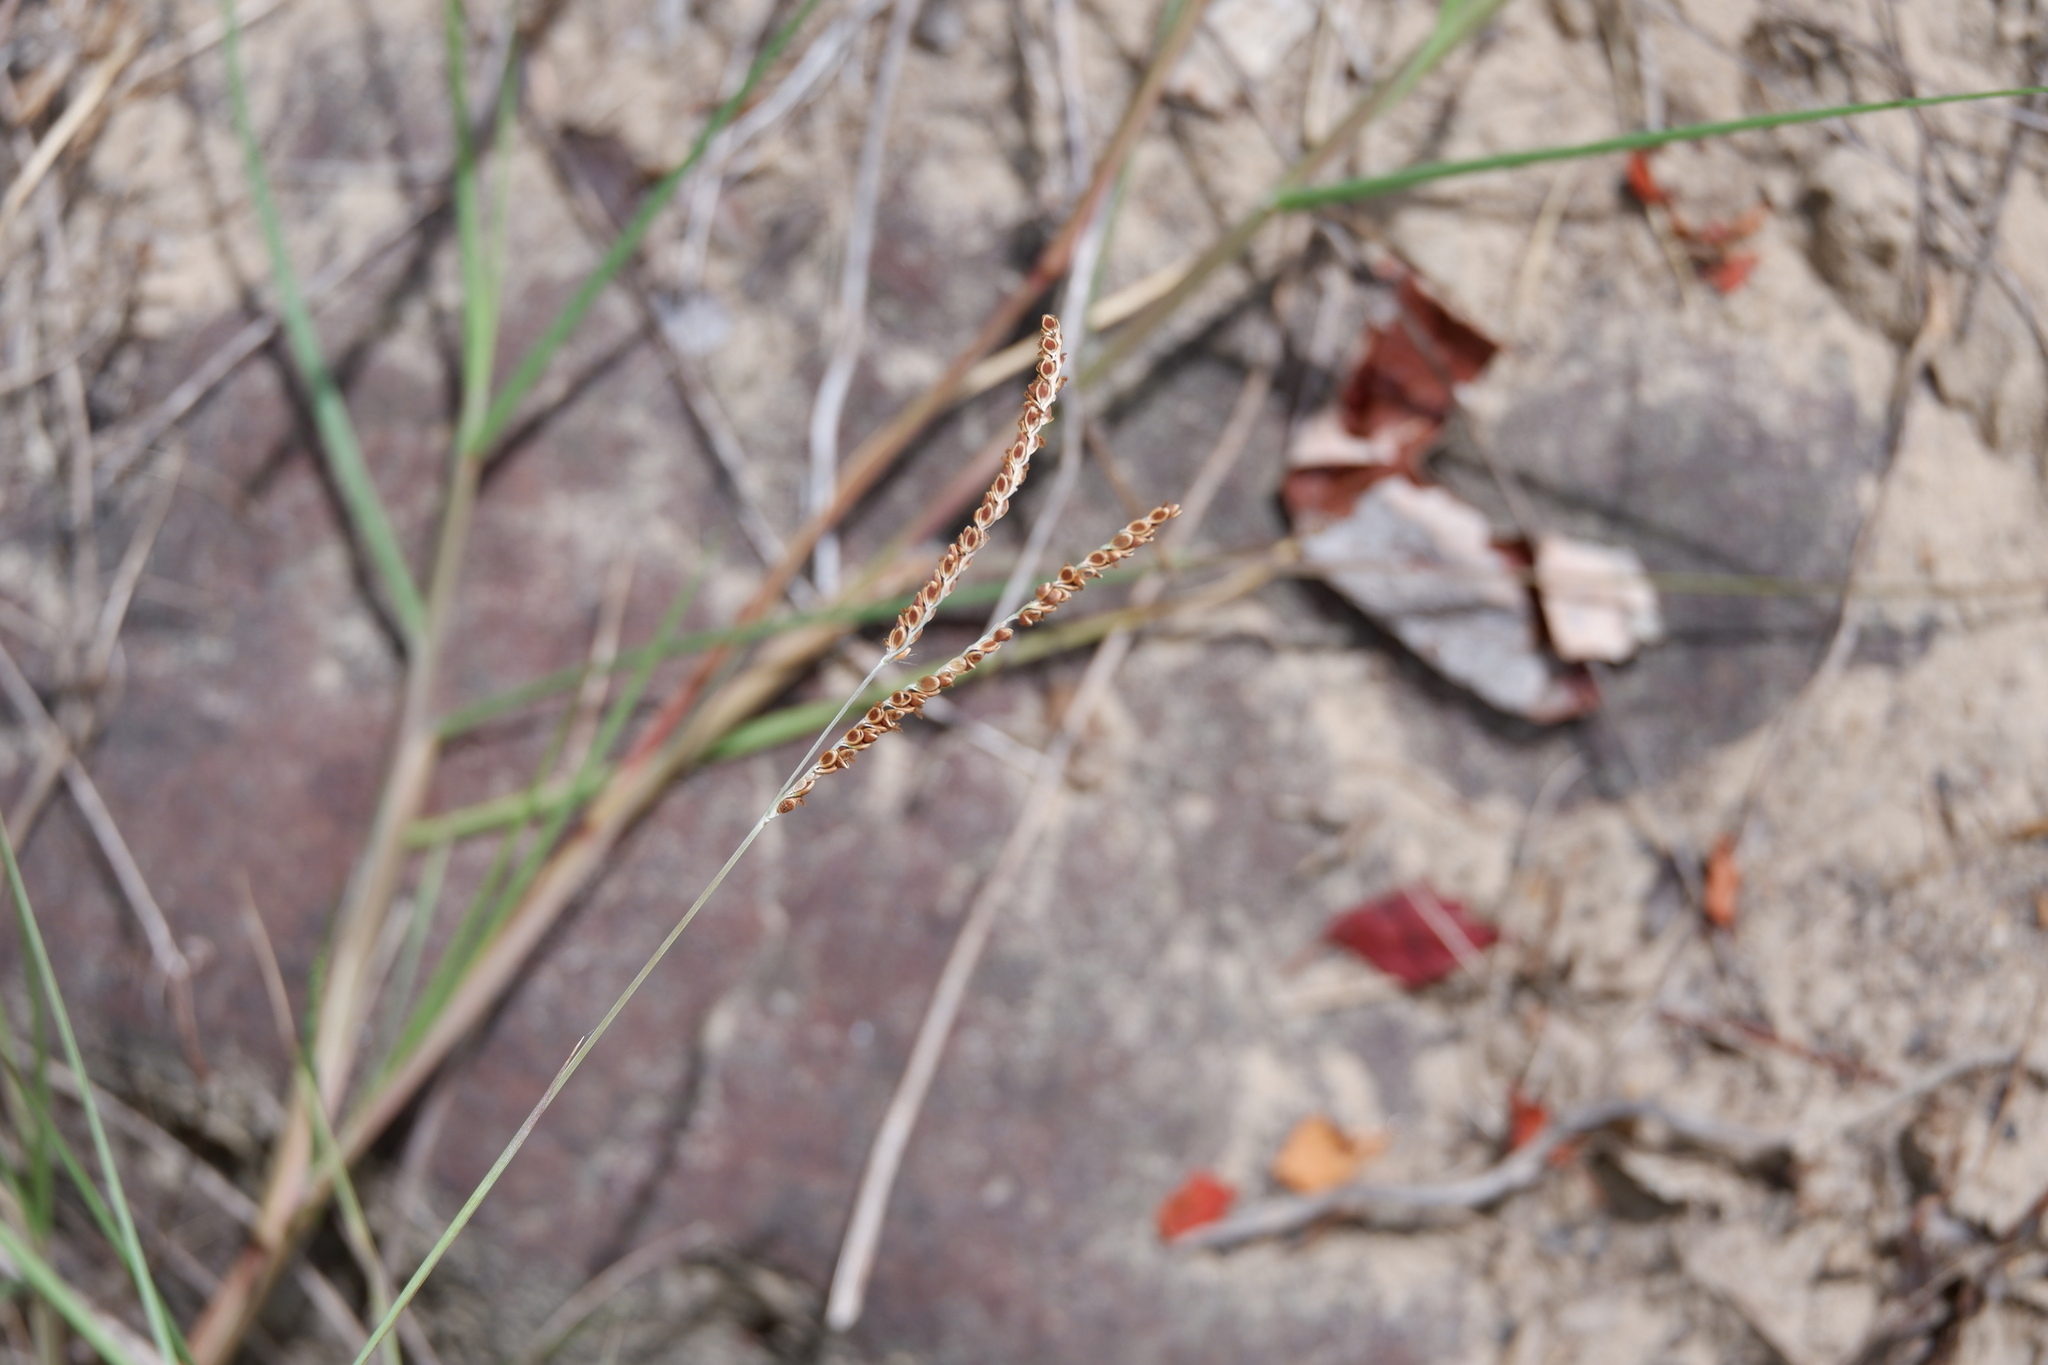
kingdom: Plantae
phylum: Tracheophyta
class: Liliopsida
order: Poales
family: Poaceae
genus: Paspalum
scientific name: Paspalum plicatulum
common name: Top paspalum
